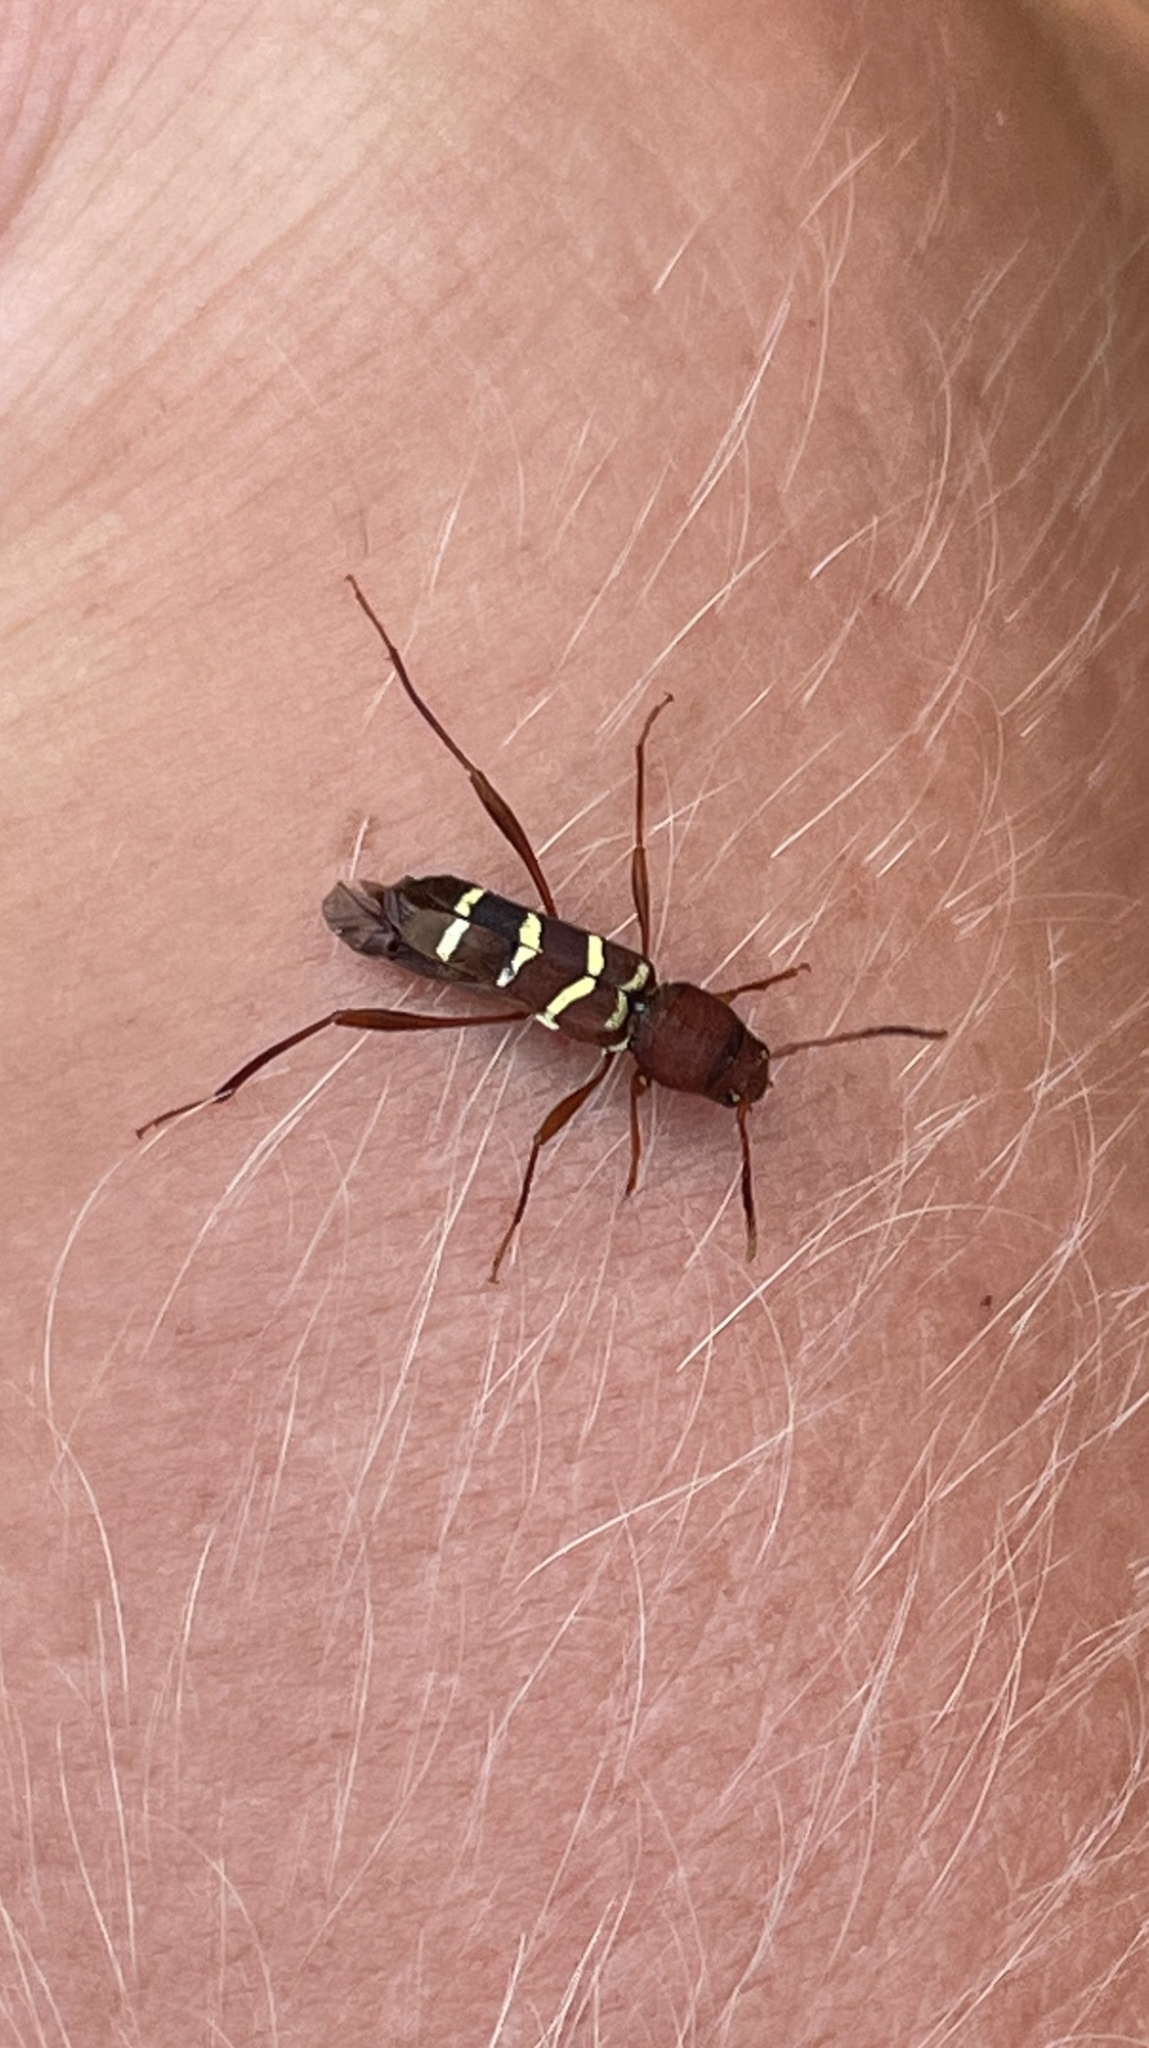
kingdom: Animalia
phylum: Arthropoda
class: Insecta
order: Coleoptera
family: Cerambycidae
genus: Neoclytus
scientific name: Neoclytus acuminatus
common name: Read-headed ash borer
